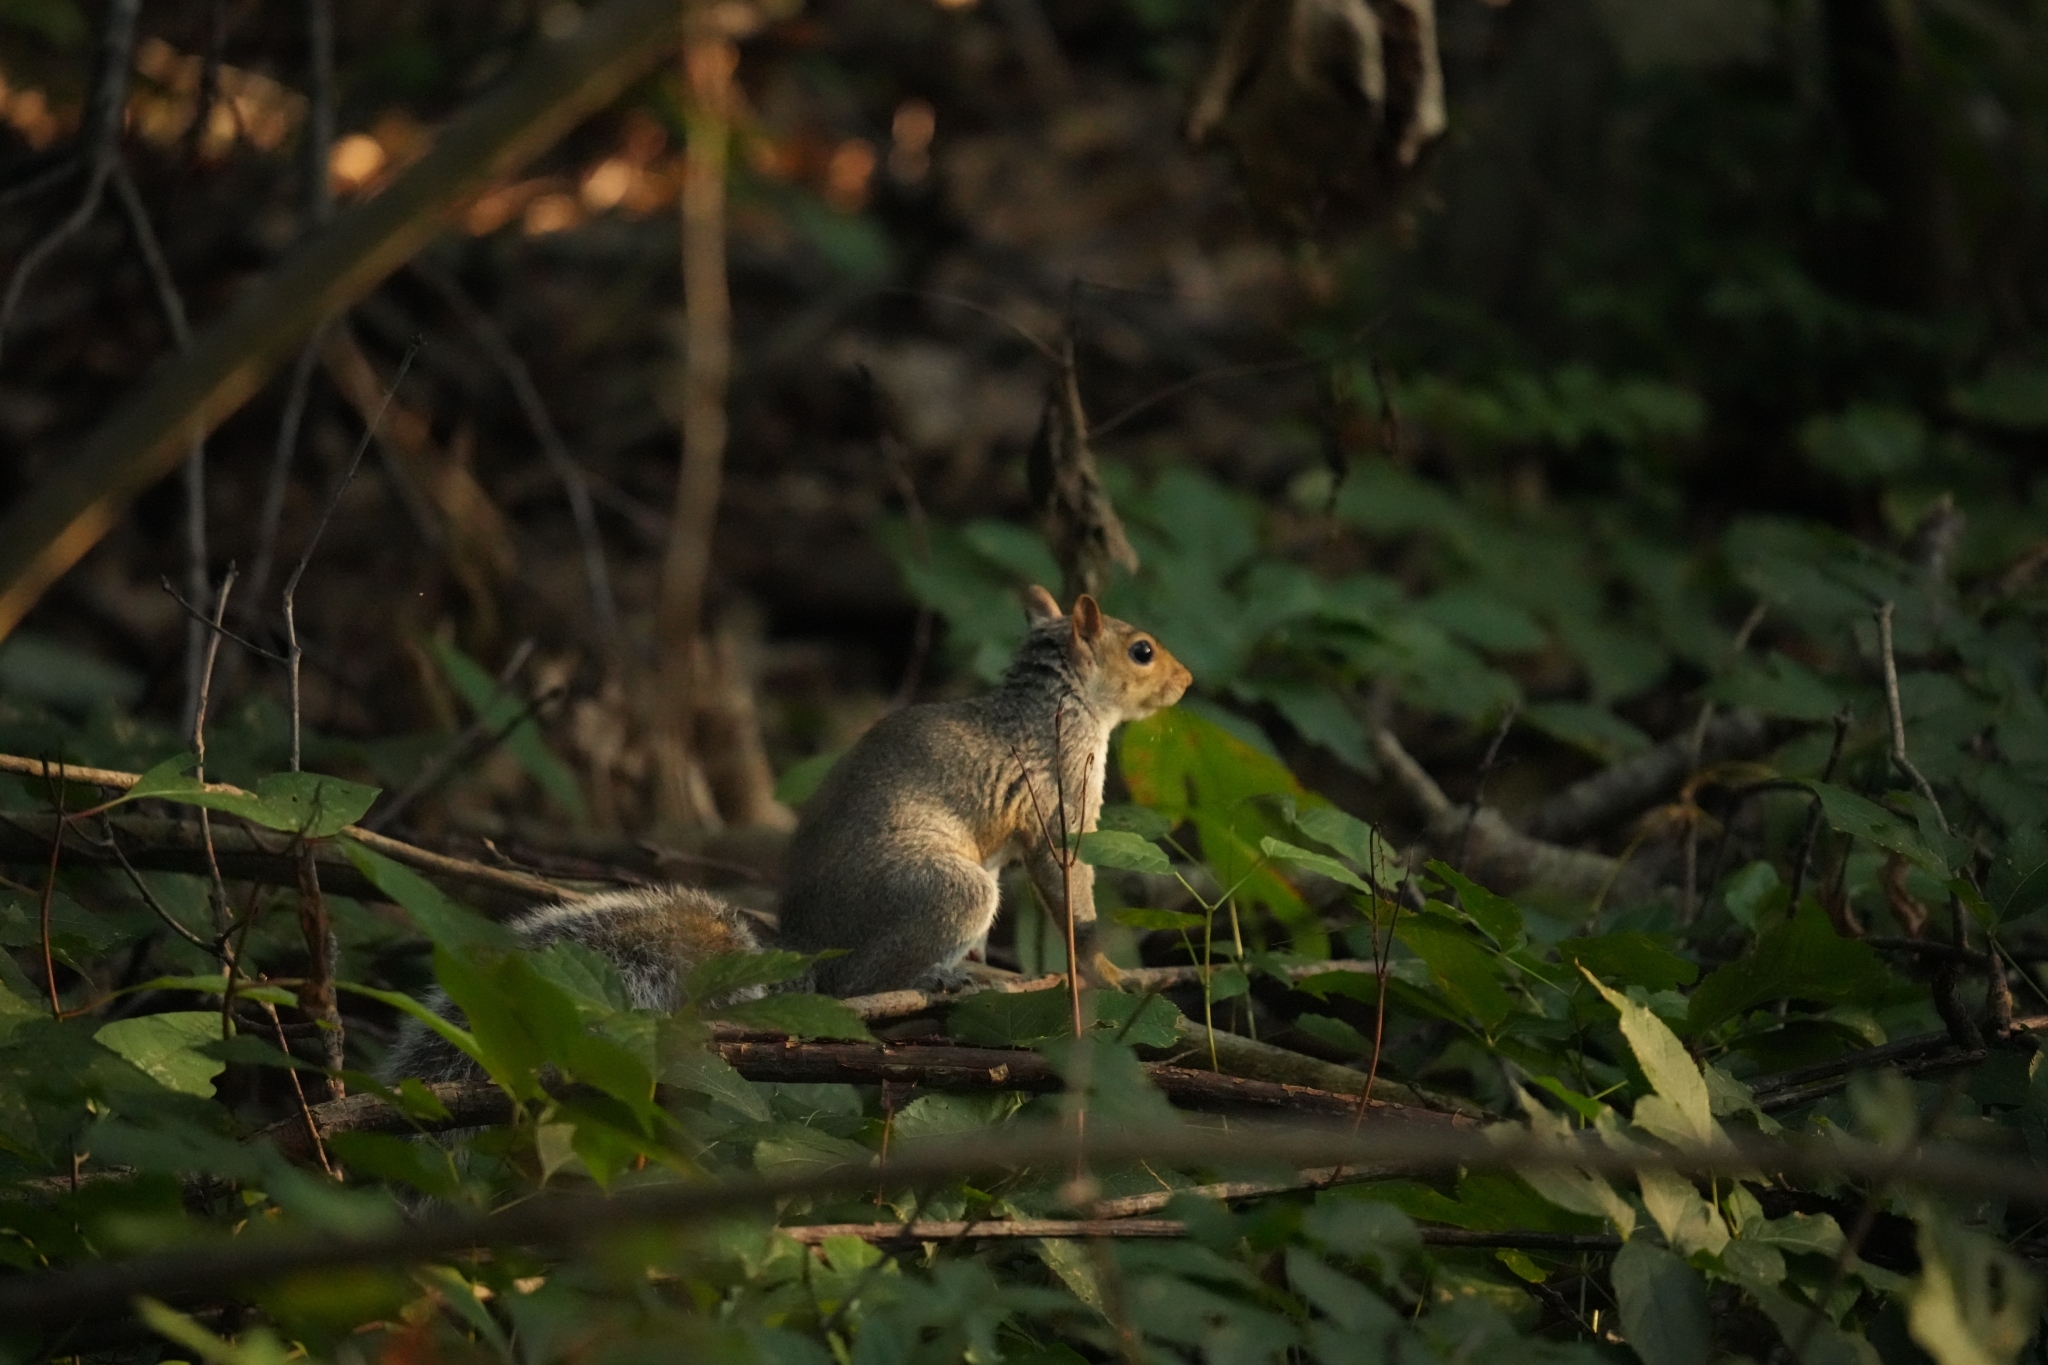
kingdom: Animalia
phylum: Chordata
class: Mammalia
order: Rodentia
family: Sciuridae
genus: Sciurus
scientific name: Sciurus carolinensis
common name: Eastern gray squirrel
